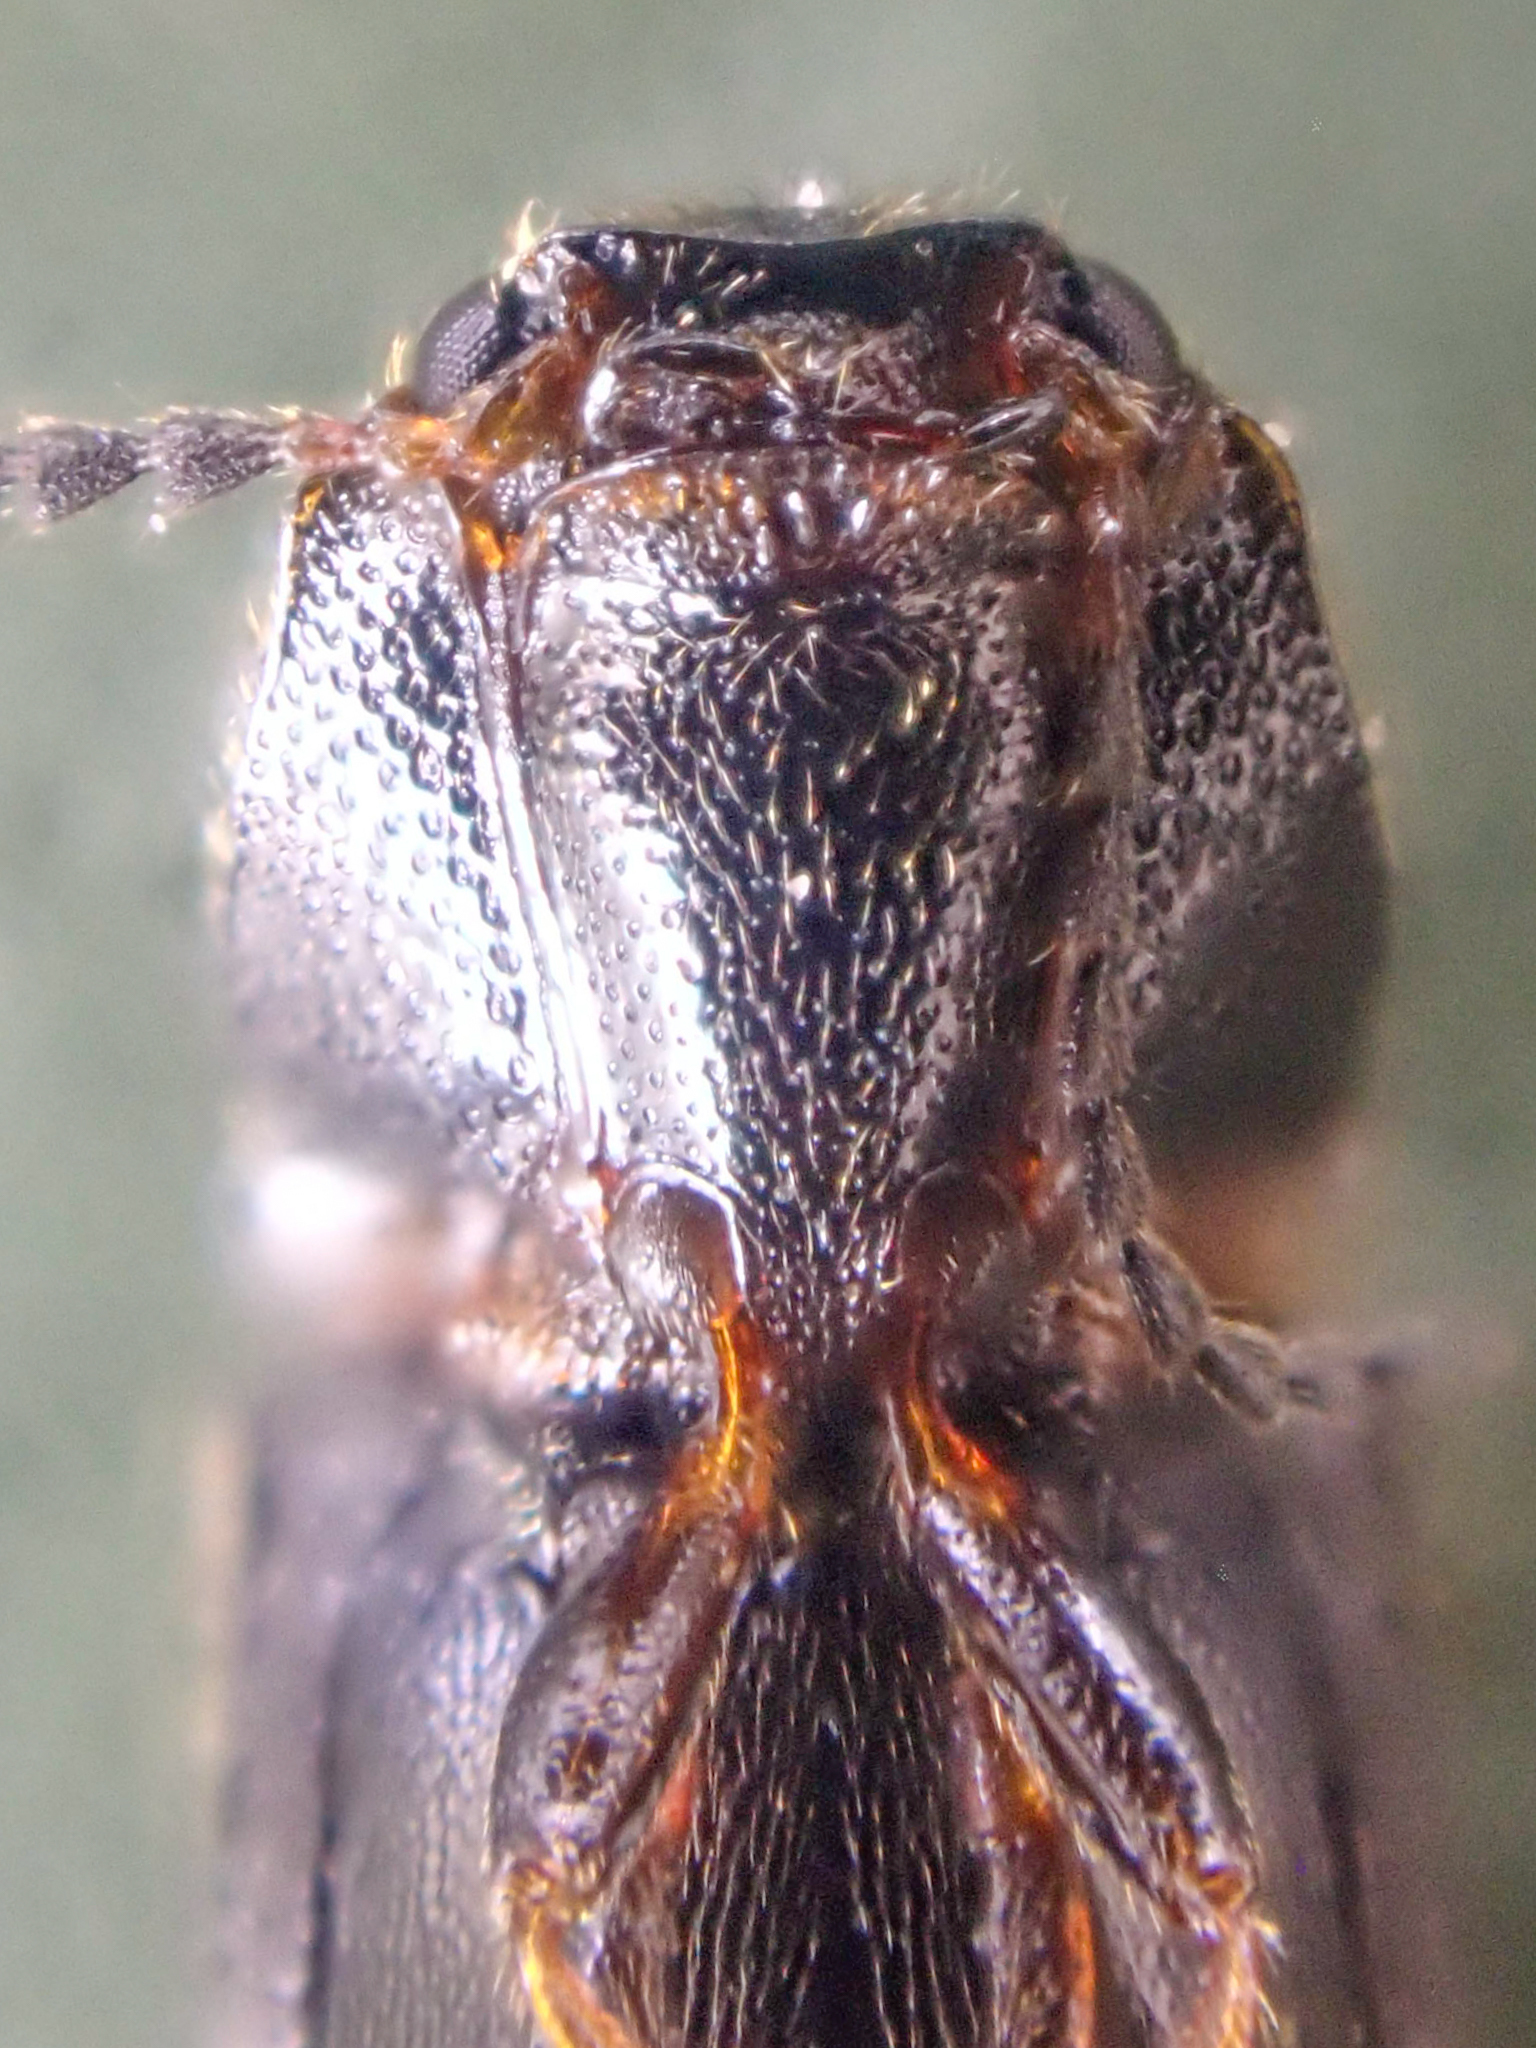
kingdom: Animalia
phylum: Arthropoda
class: Insecta
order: Coleoptera
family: Elateridae
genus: Tetralimonius
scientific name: Tetralimonius
